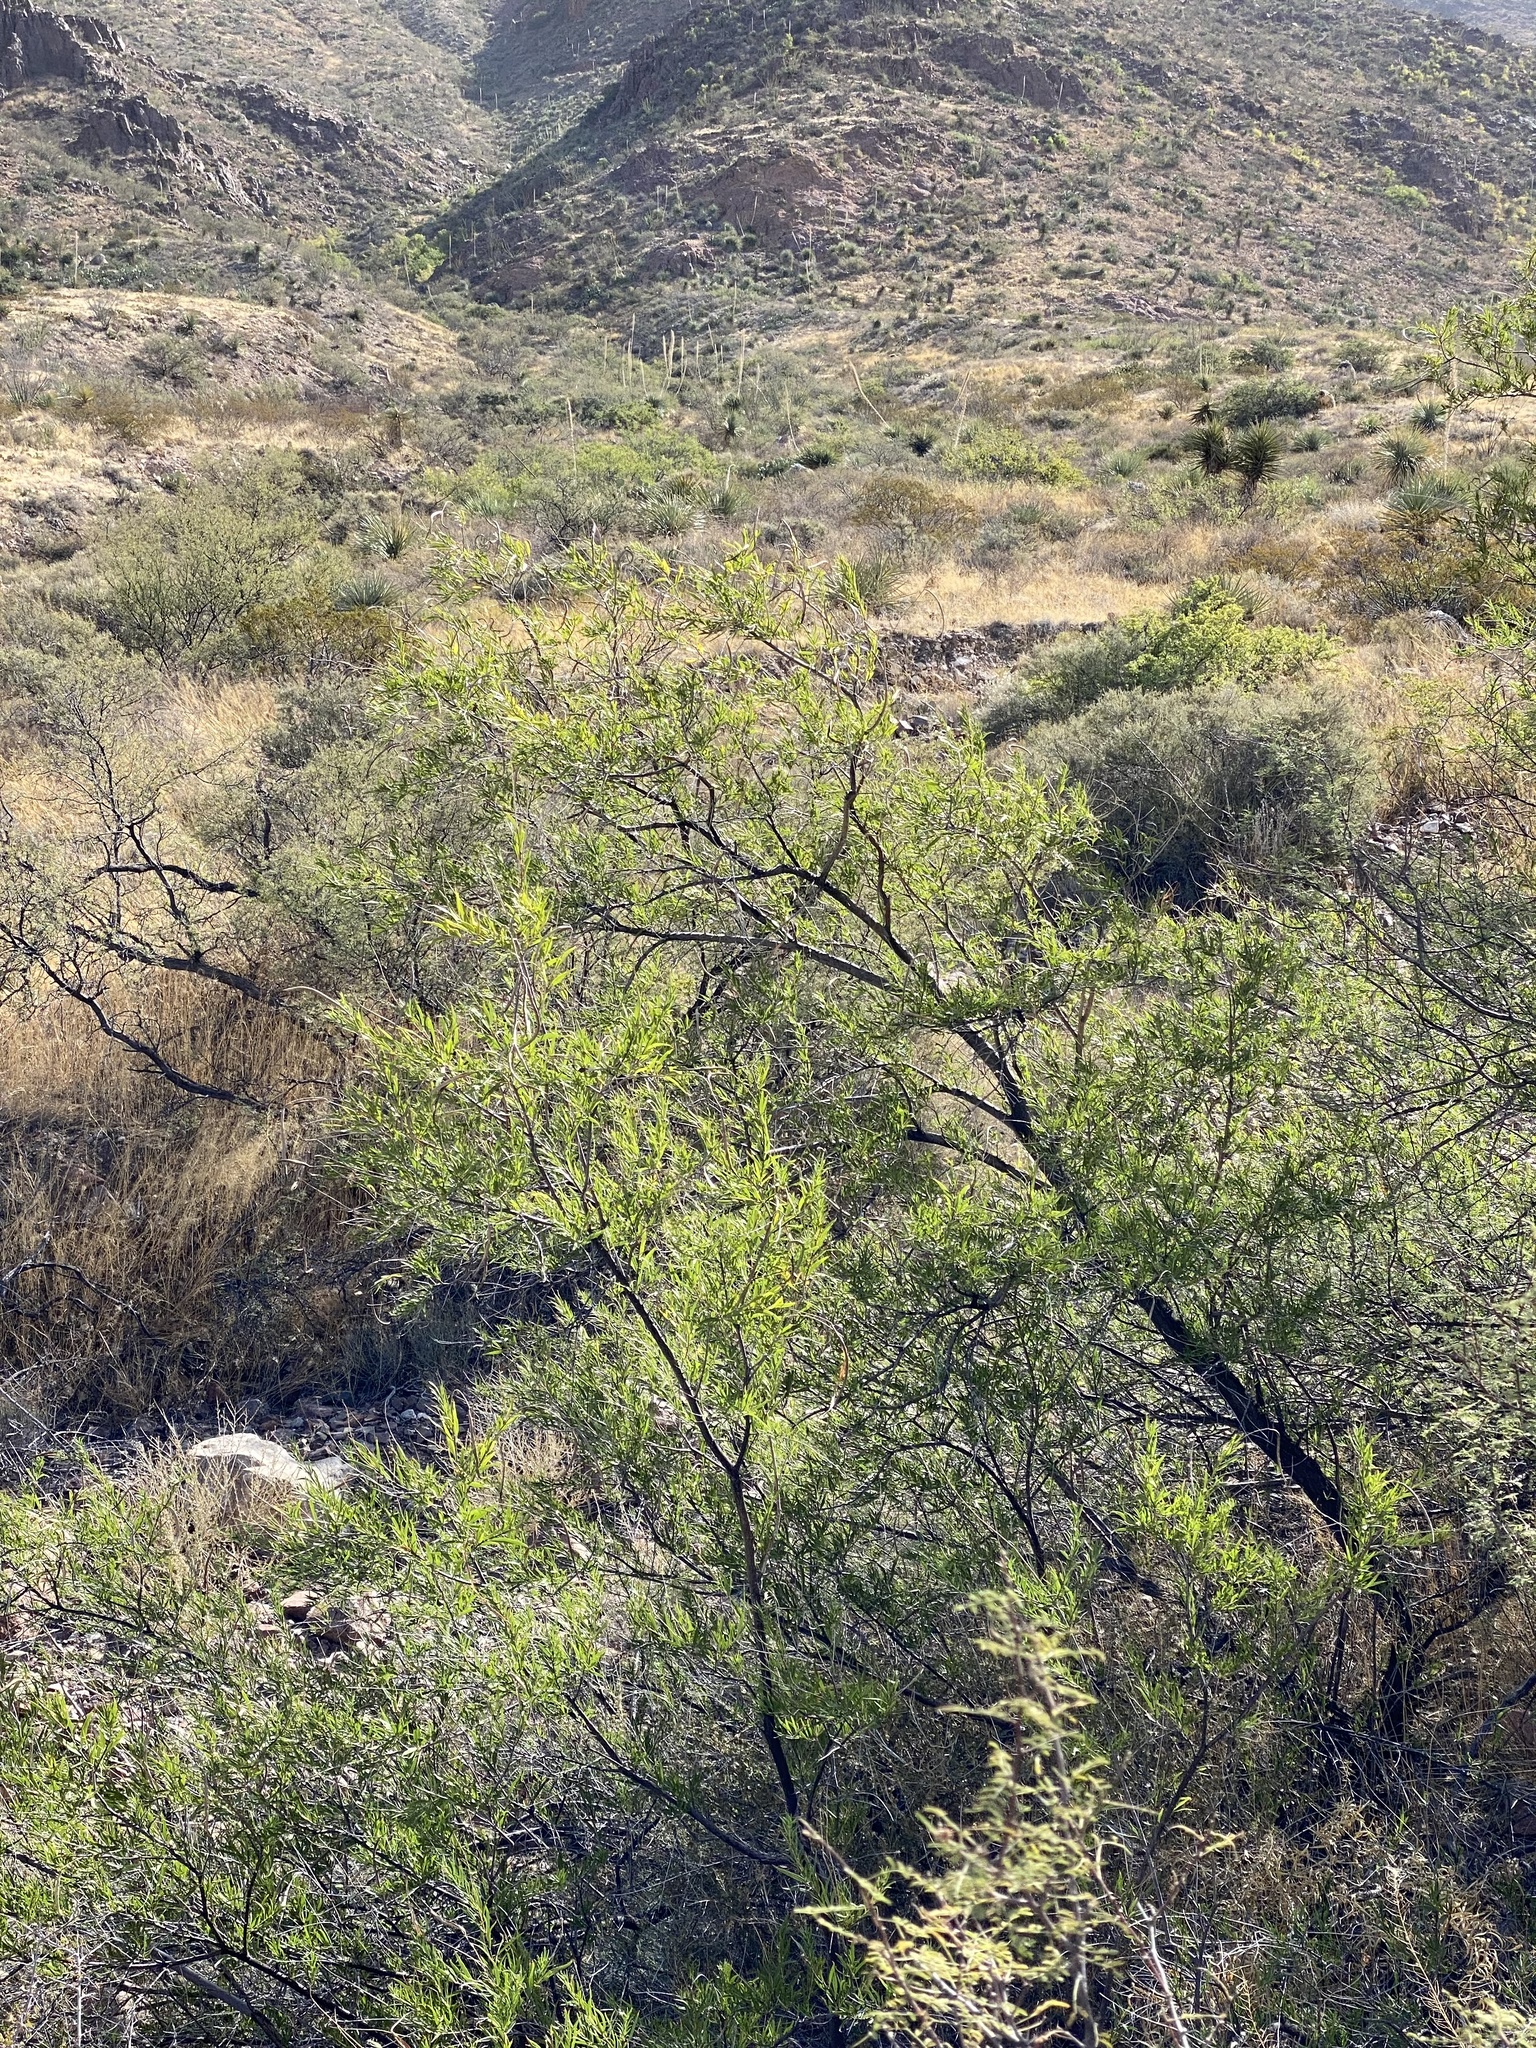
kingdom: Plantae
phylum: Tracheophyta
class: Magnoliopsida
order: Lamiales
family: Bignoniaceae
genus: Chilopsis
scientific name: Chilopsis linearis
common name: Desert-willow
